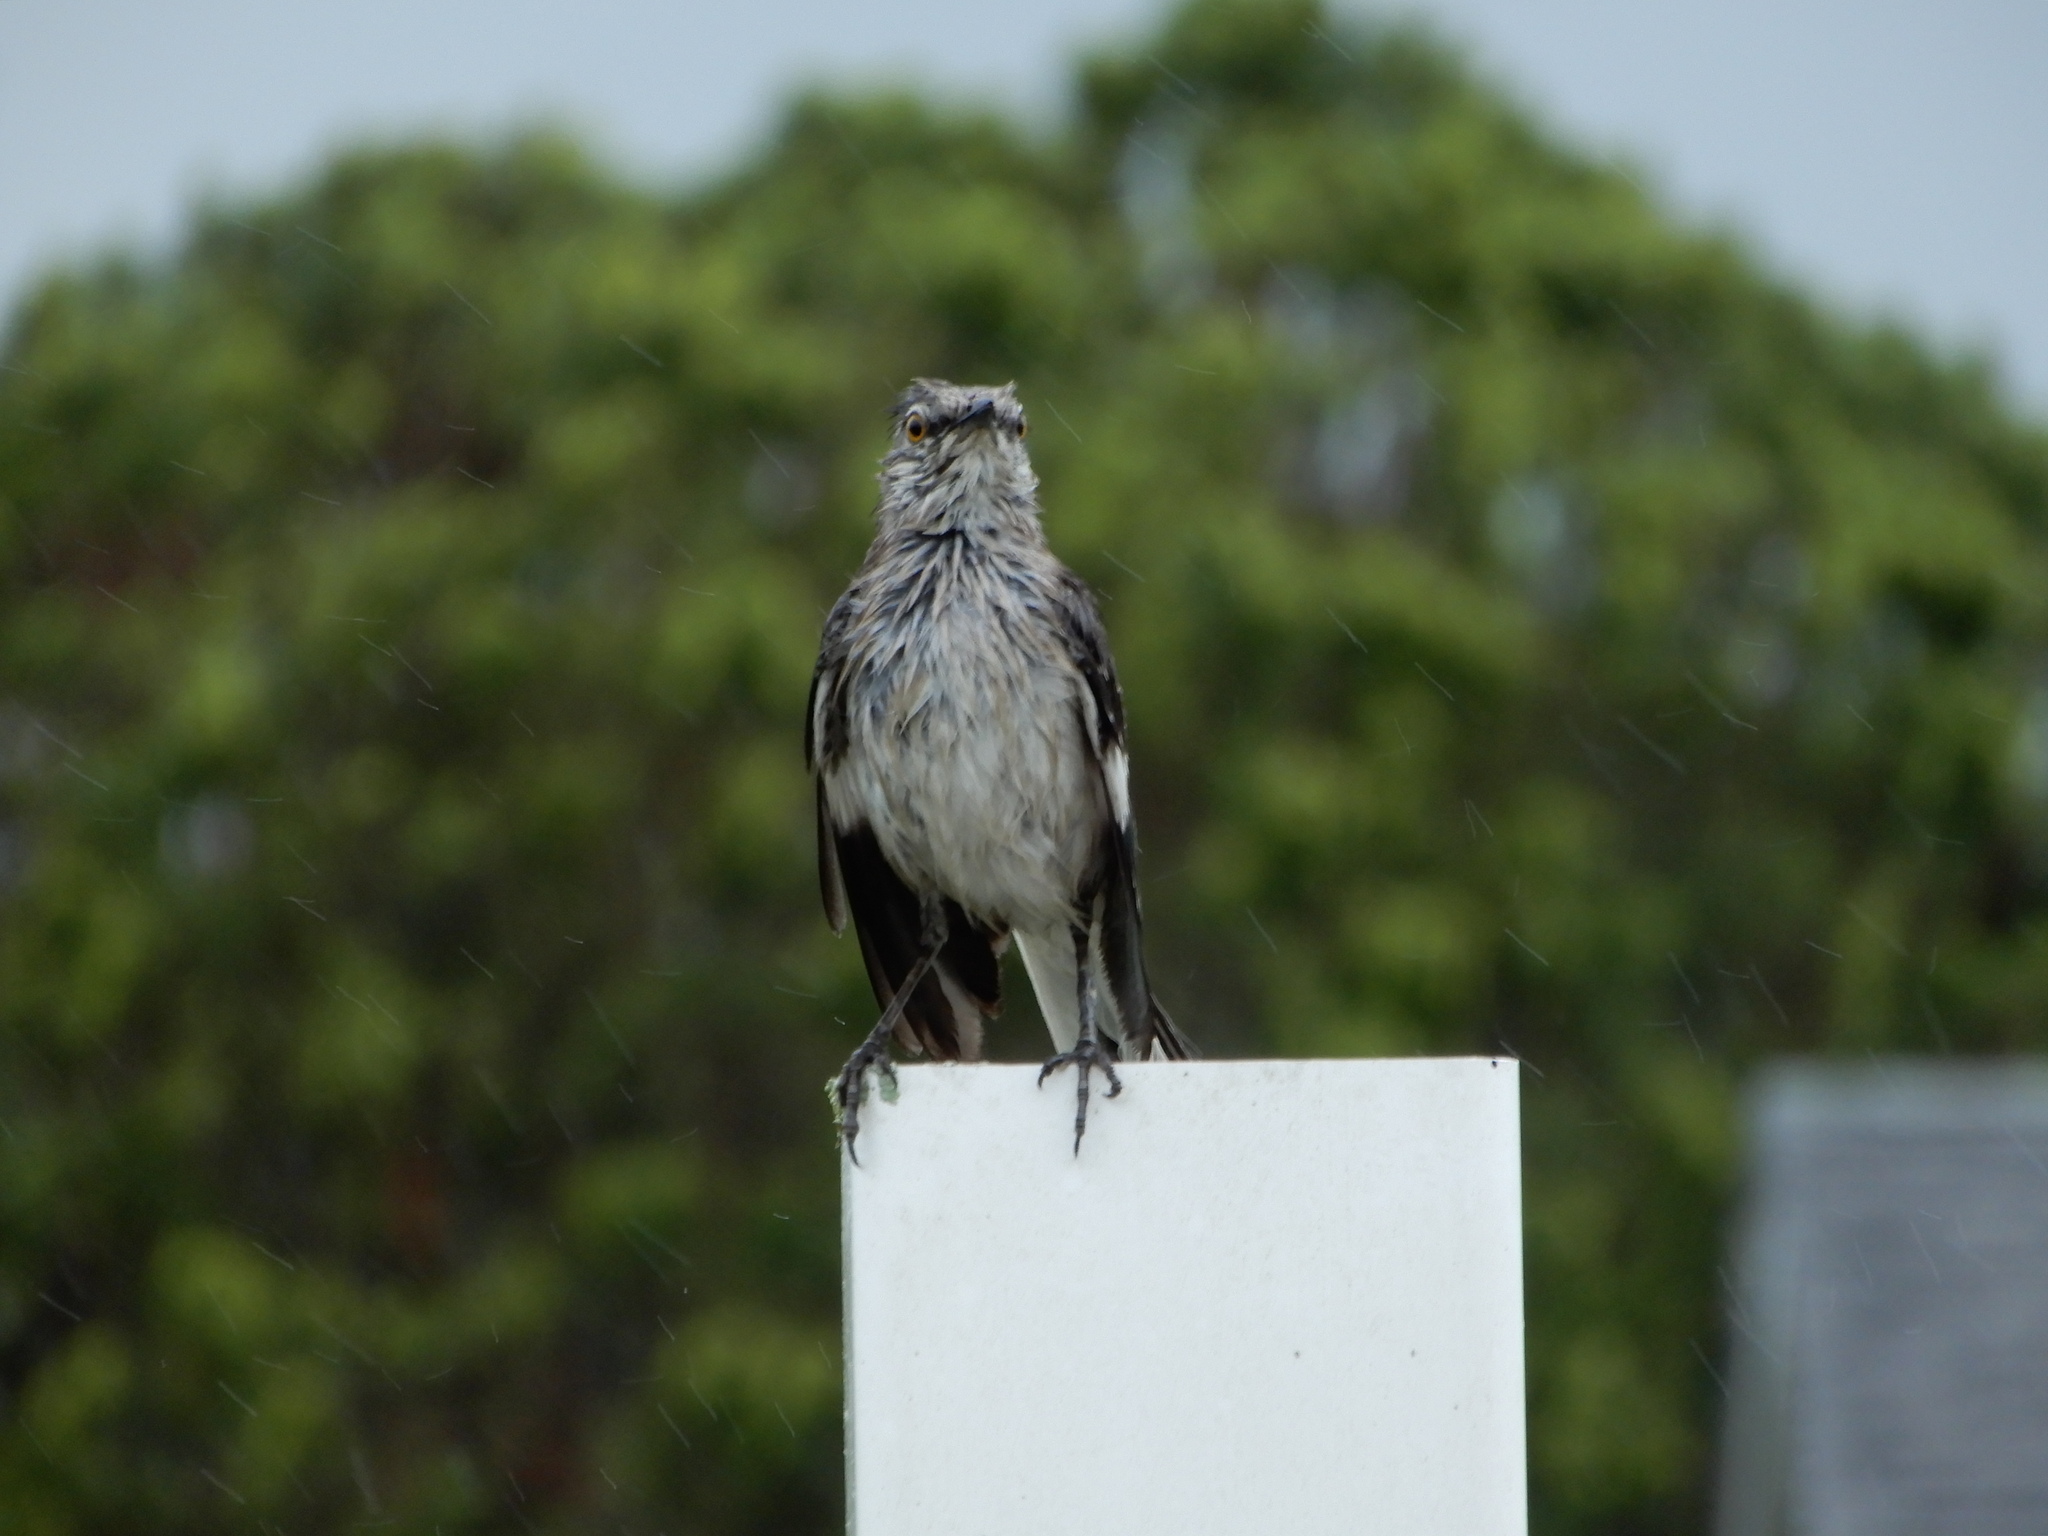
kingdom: Animalia
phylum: Chordata
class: Aves
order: Passeriformes
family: Mimidae
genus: Mimus
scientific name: Mimus polyglottos
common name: Northern mockingbird
